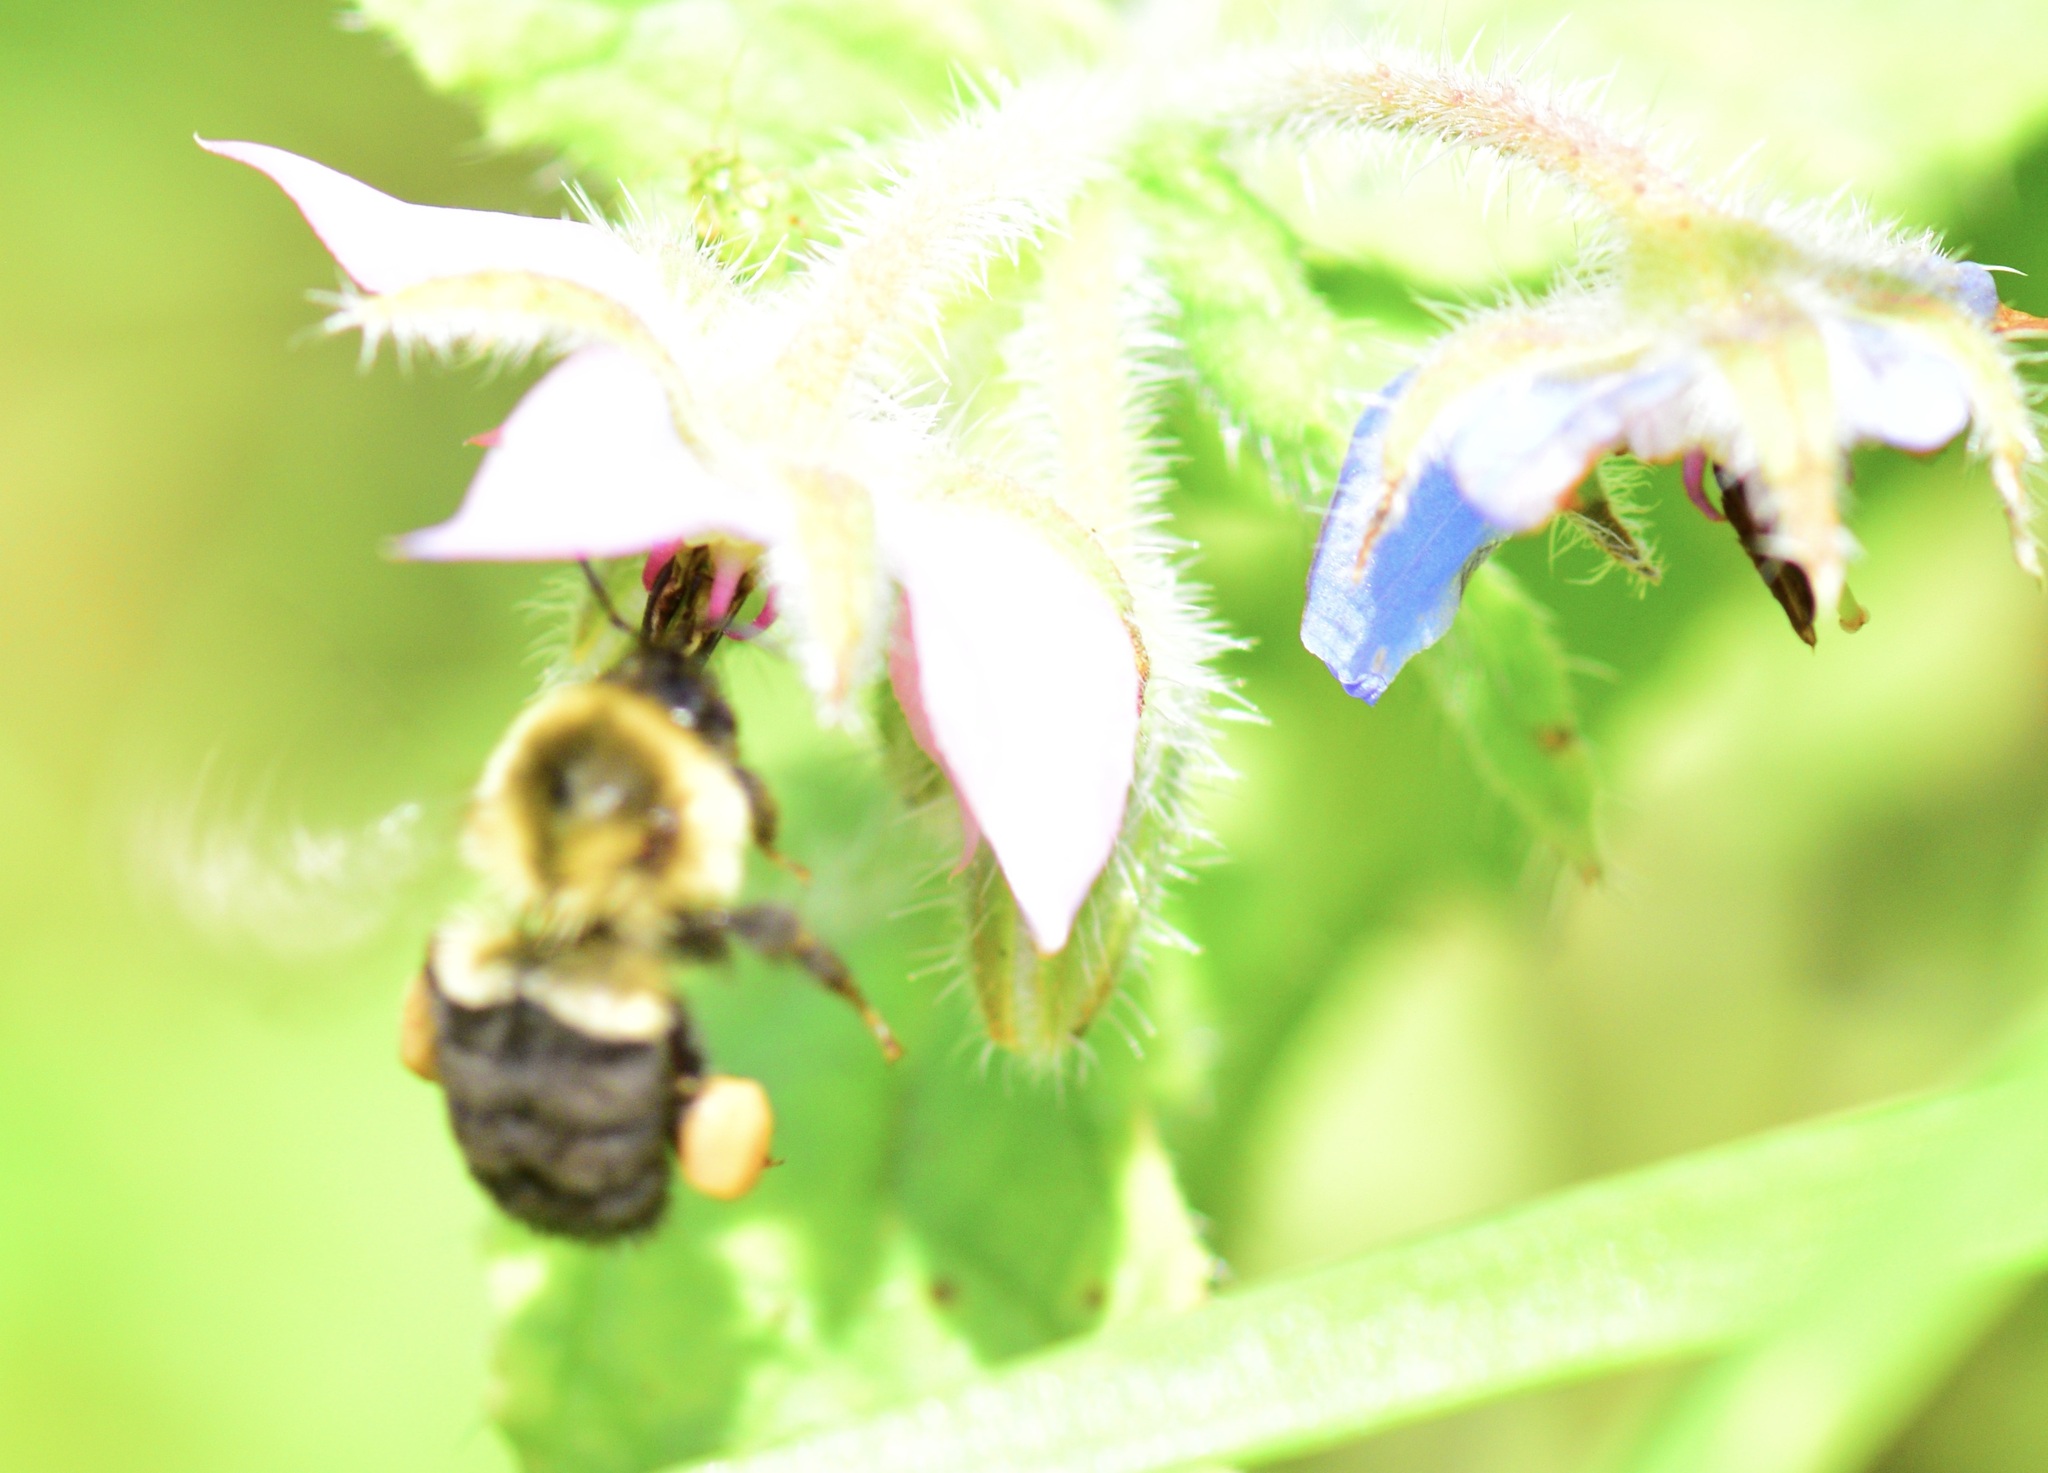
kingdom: Animalia
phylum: Arthropoda
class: Insecta
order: Hymenoptera
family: Apidae
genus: Bombus
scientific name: Bombus impatiens
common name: Common eastern bumble bee
